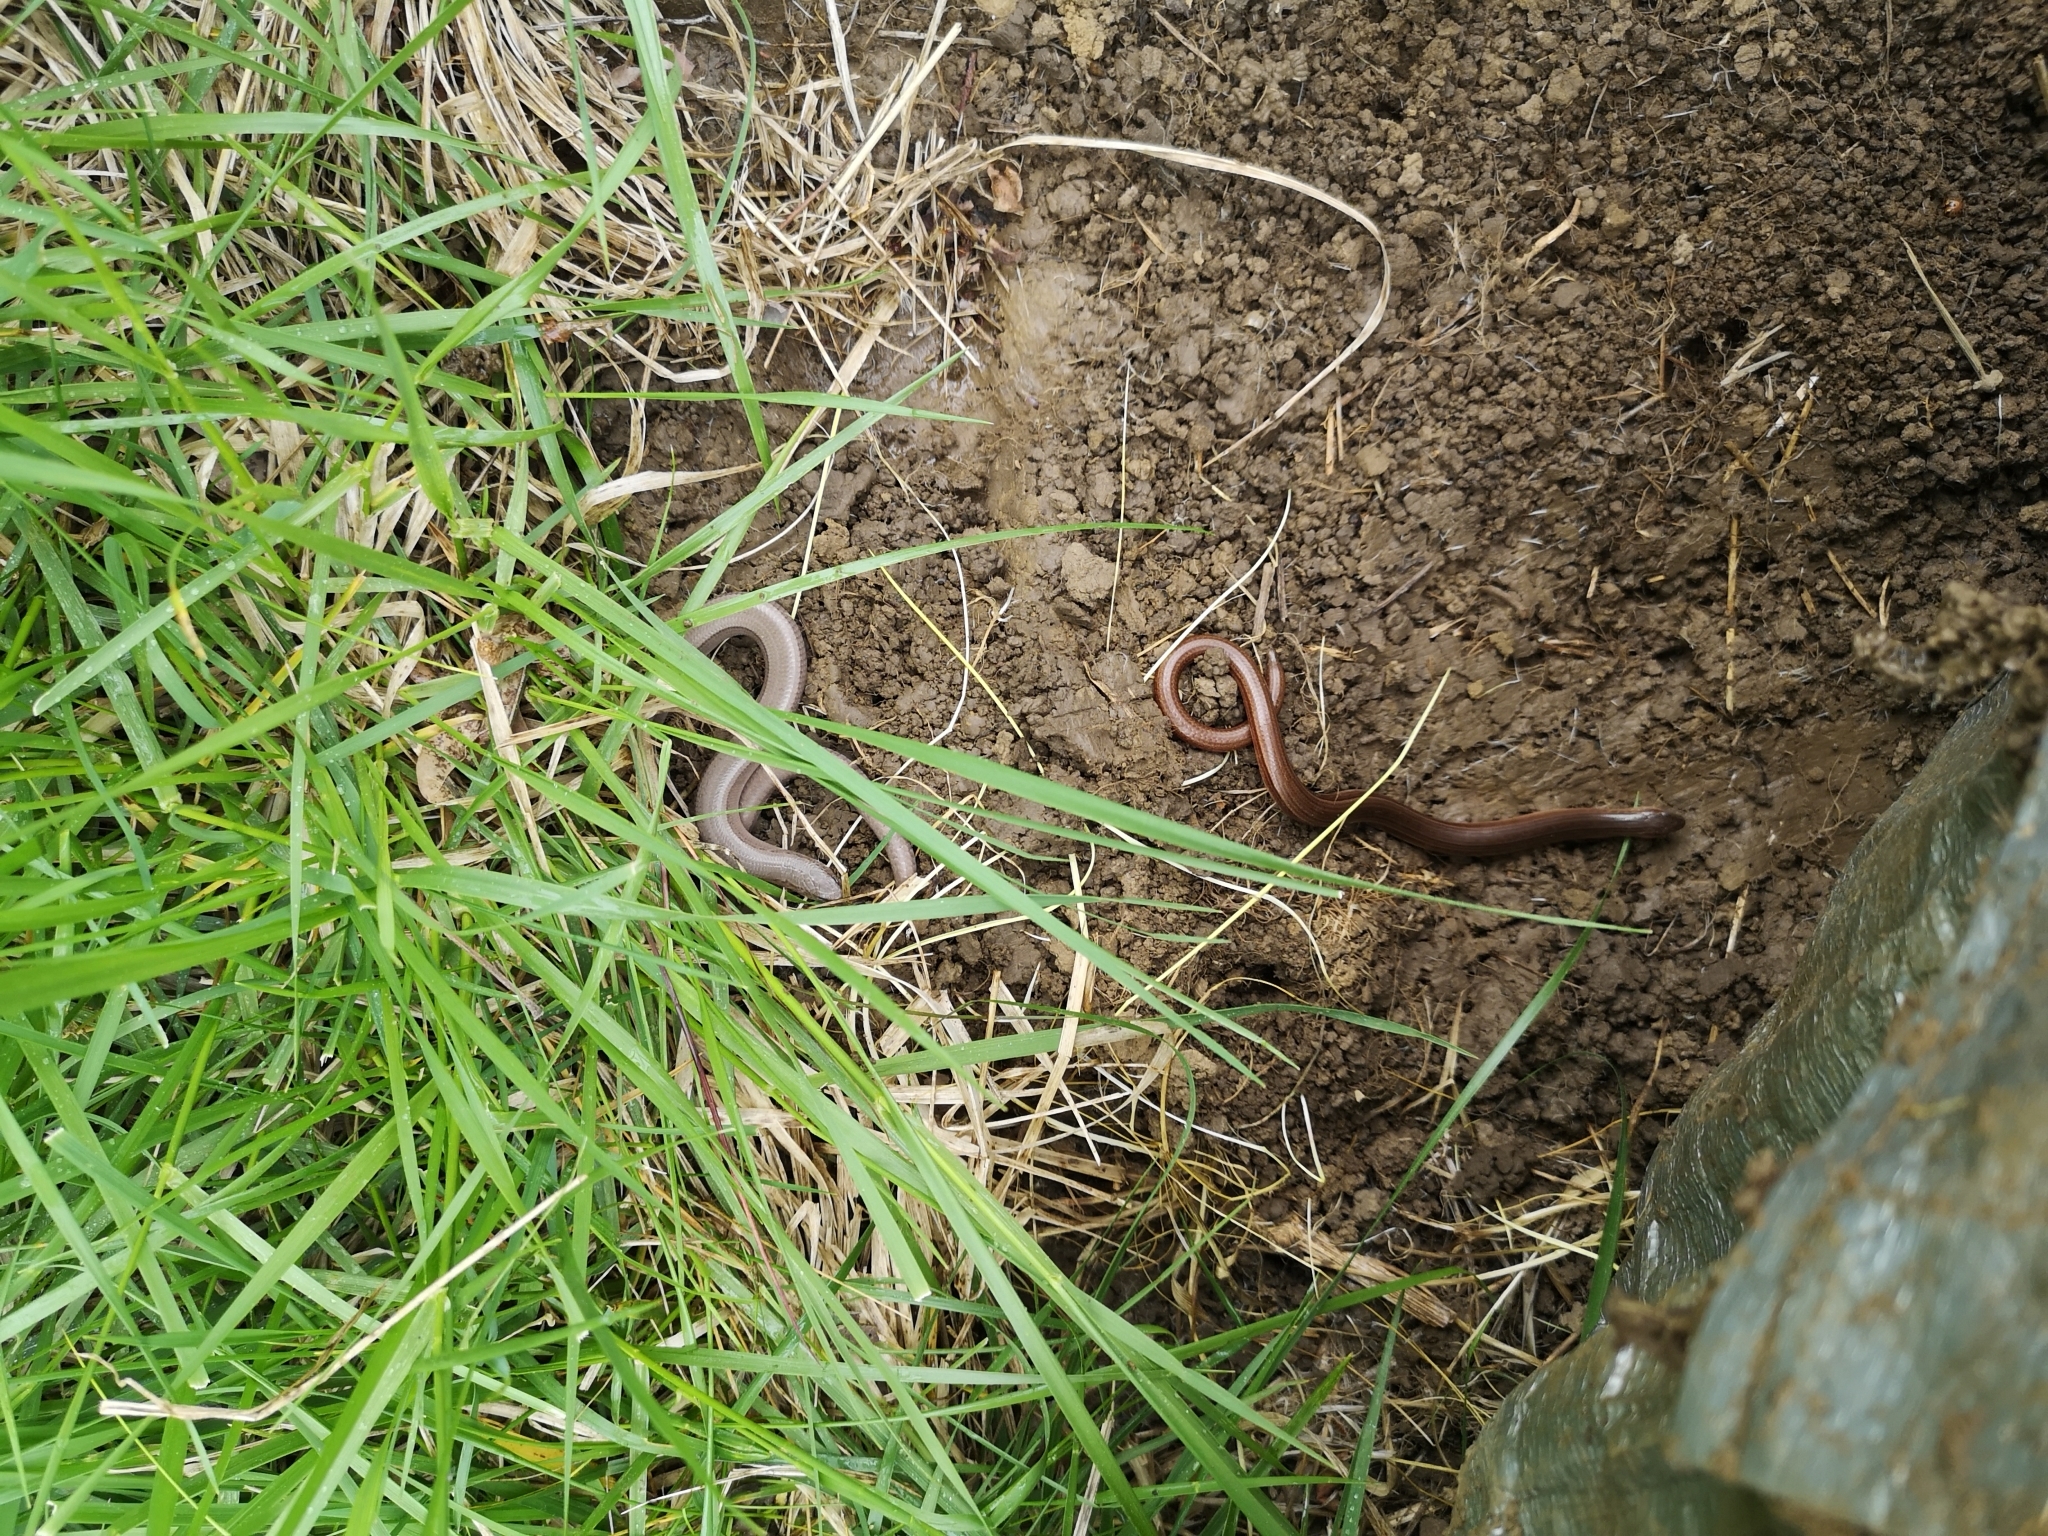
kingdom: Animalia
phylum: Chordata
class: Squamata
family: Anguidae
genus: Anguis
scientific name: Anguis
